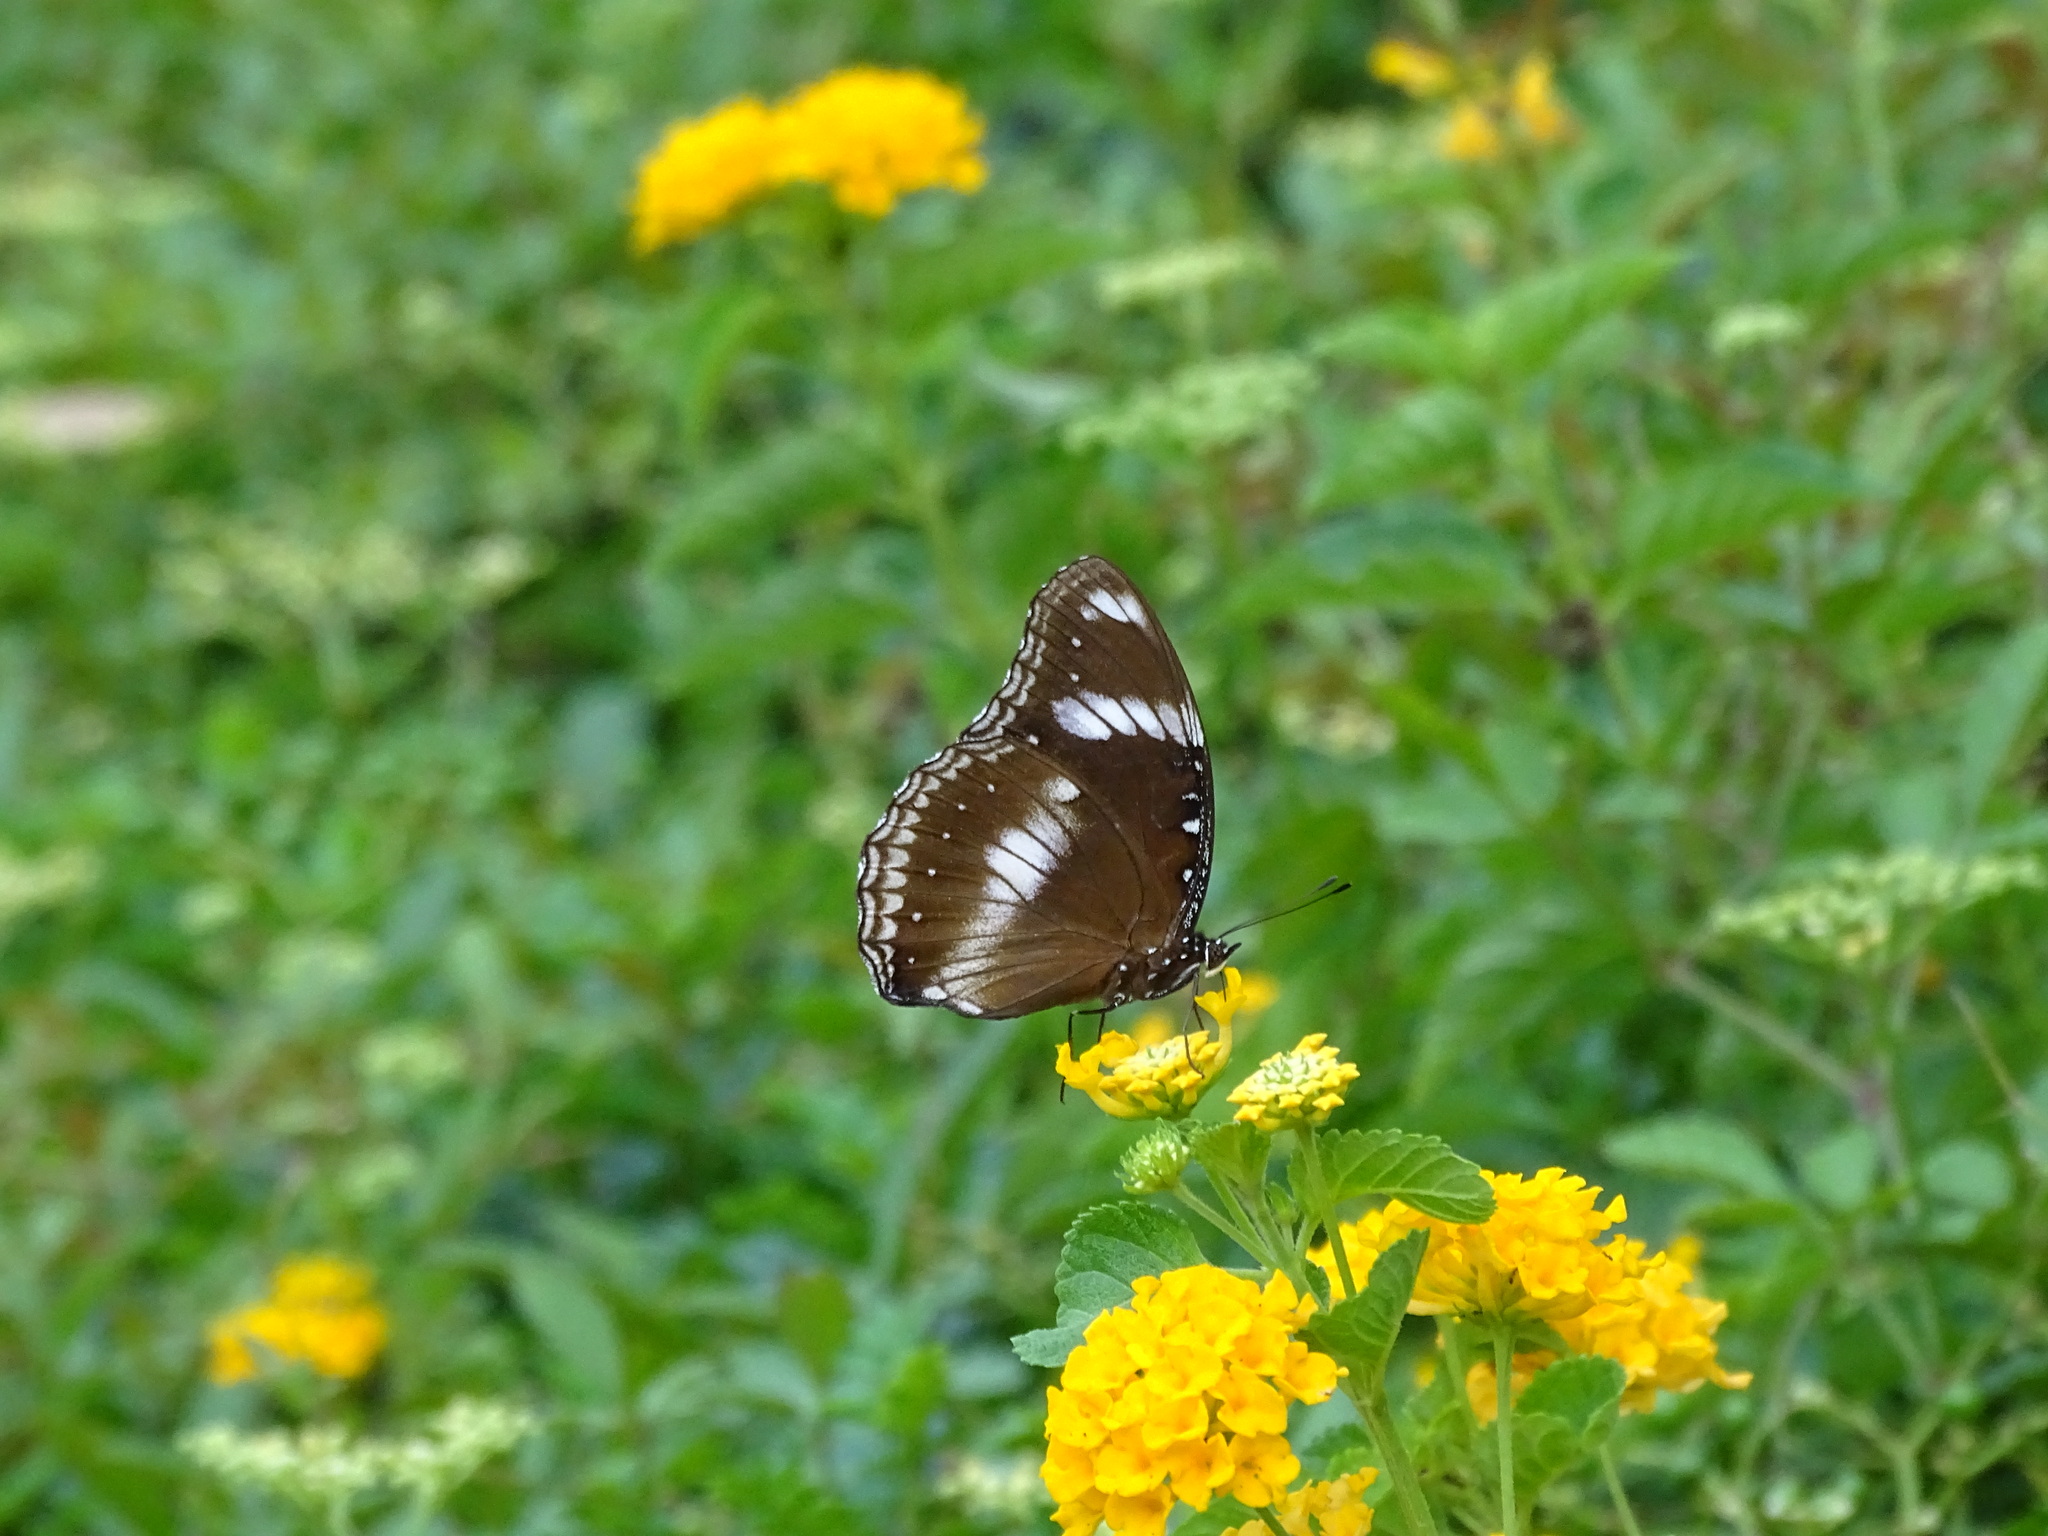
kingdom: Animalia
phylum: Arthropoda
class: Insecta
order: Lepidoptera
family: Nymphalidae
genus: Hypolimnas
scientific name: Hypolimnas bolina
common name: Great eggfly
